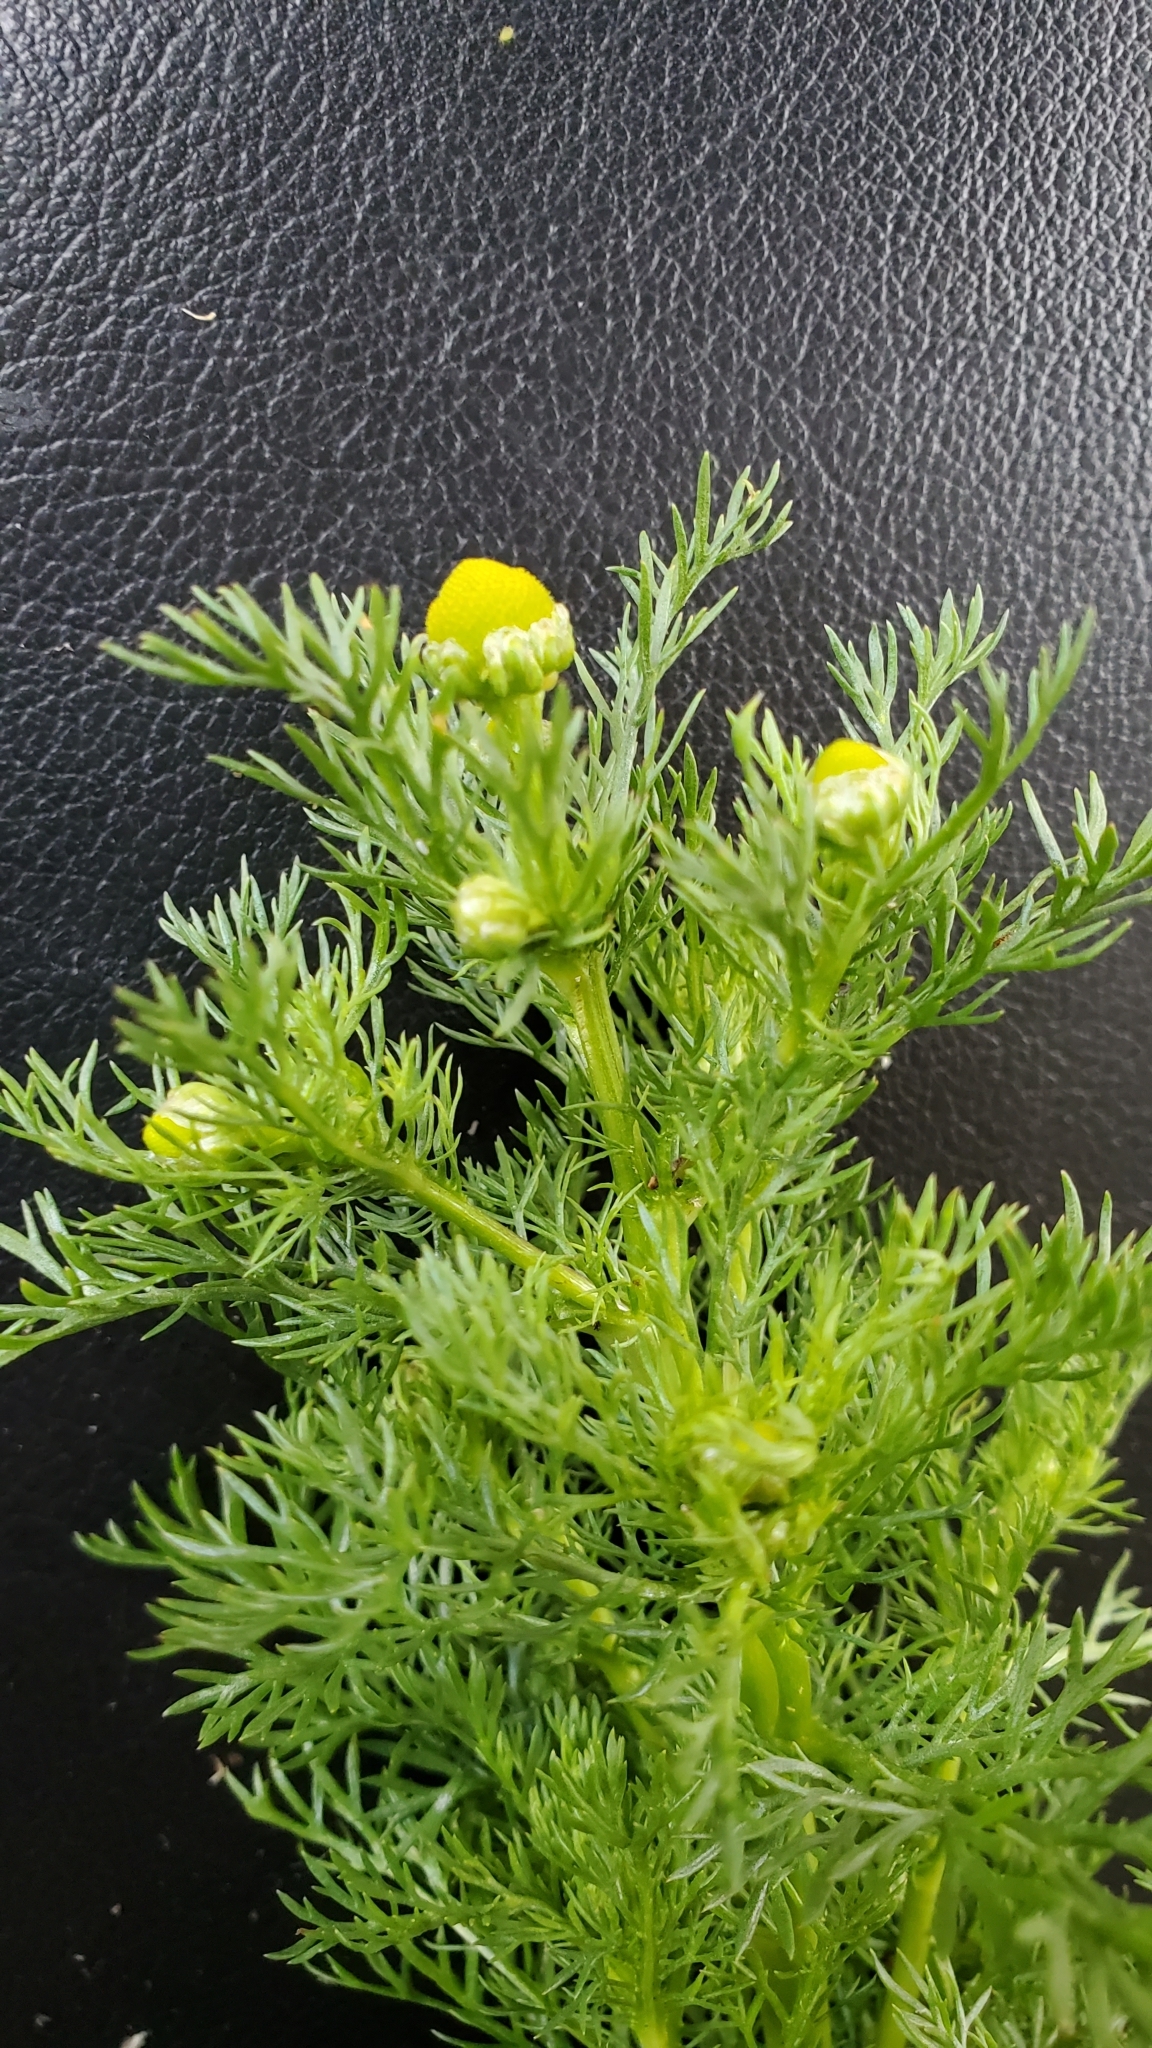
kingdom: Plantae
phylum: Tracheophyta
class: Magnoliopsida
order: Asterales
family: Asteraceae
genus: Matricaria
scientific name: Matricaria discoidea
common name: Disc mayweed
